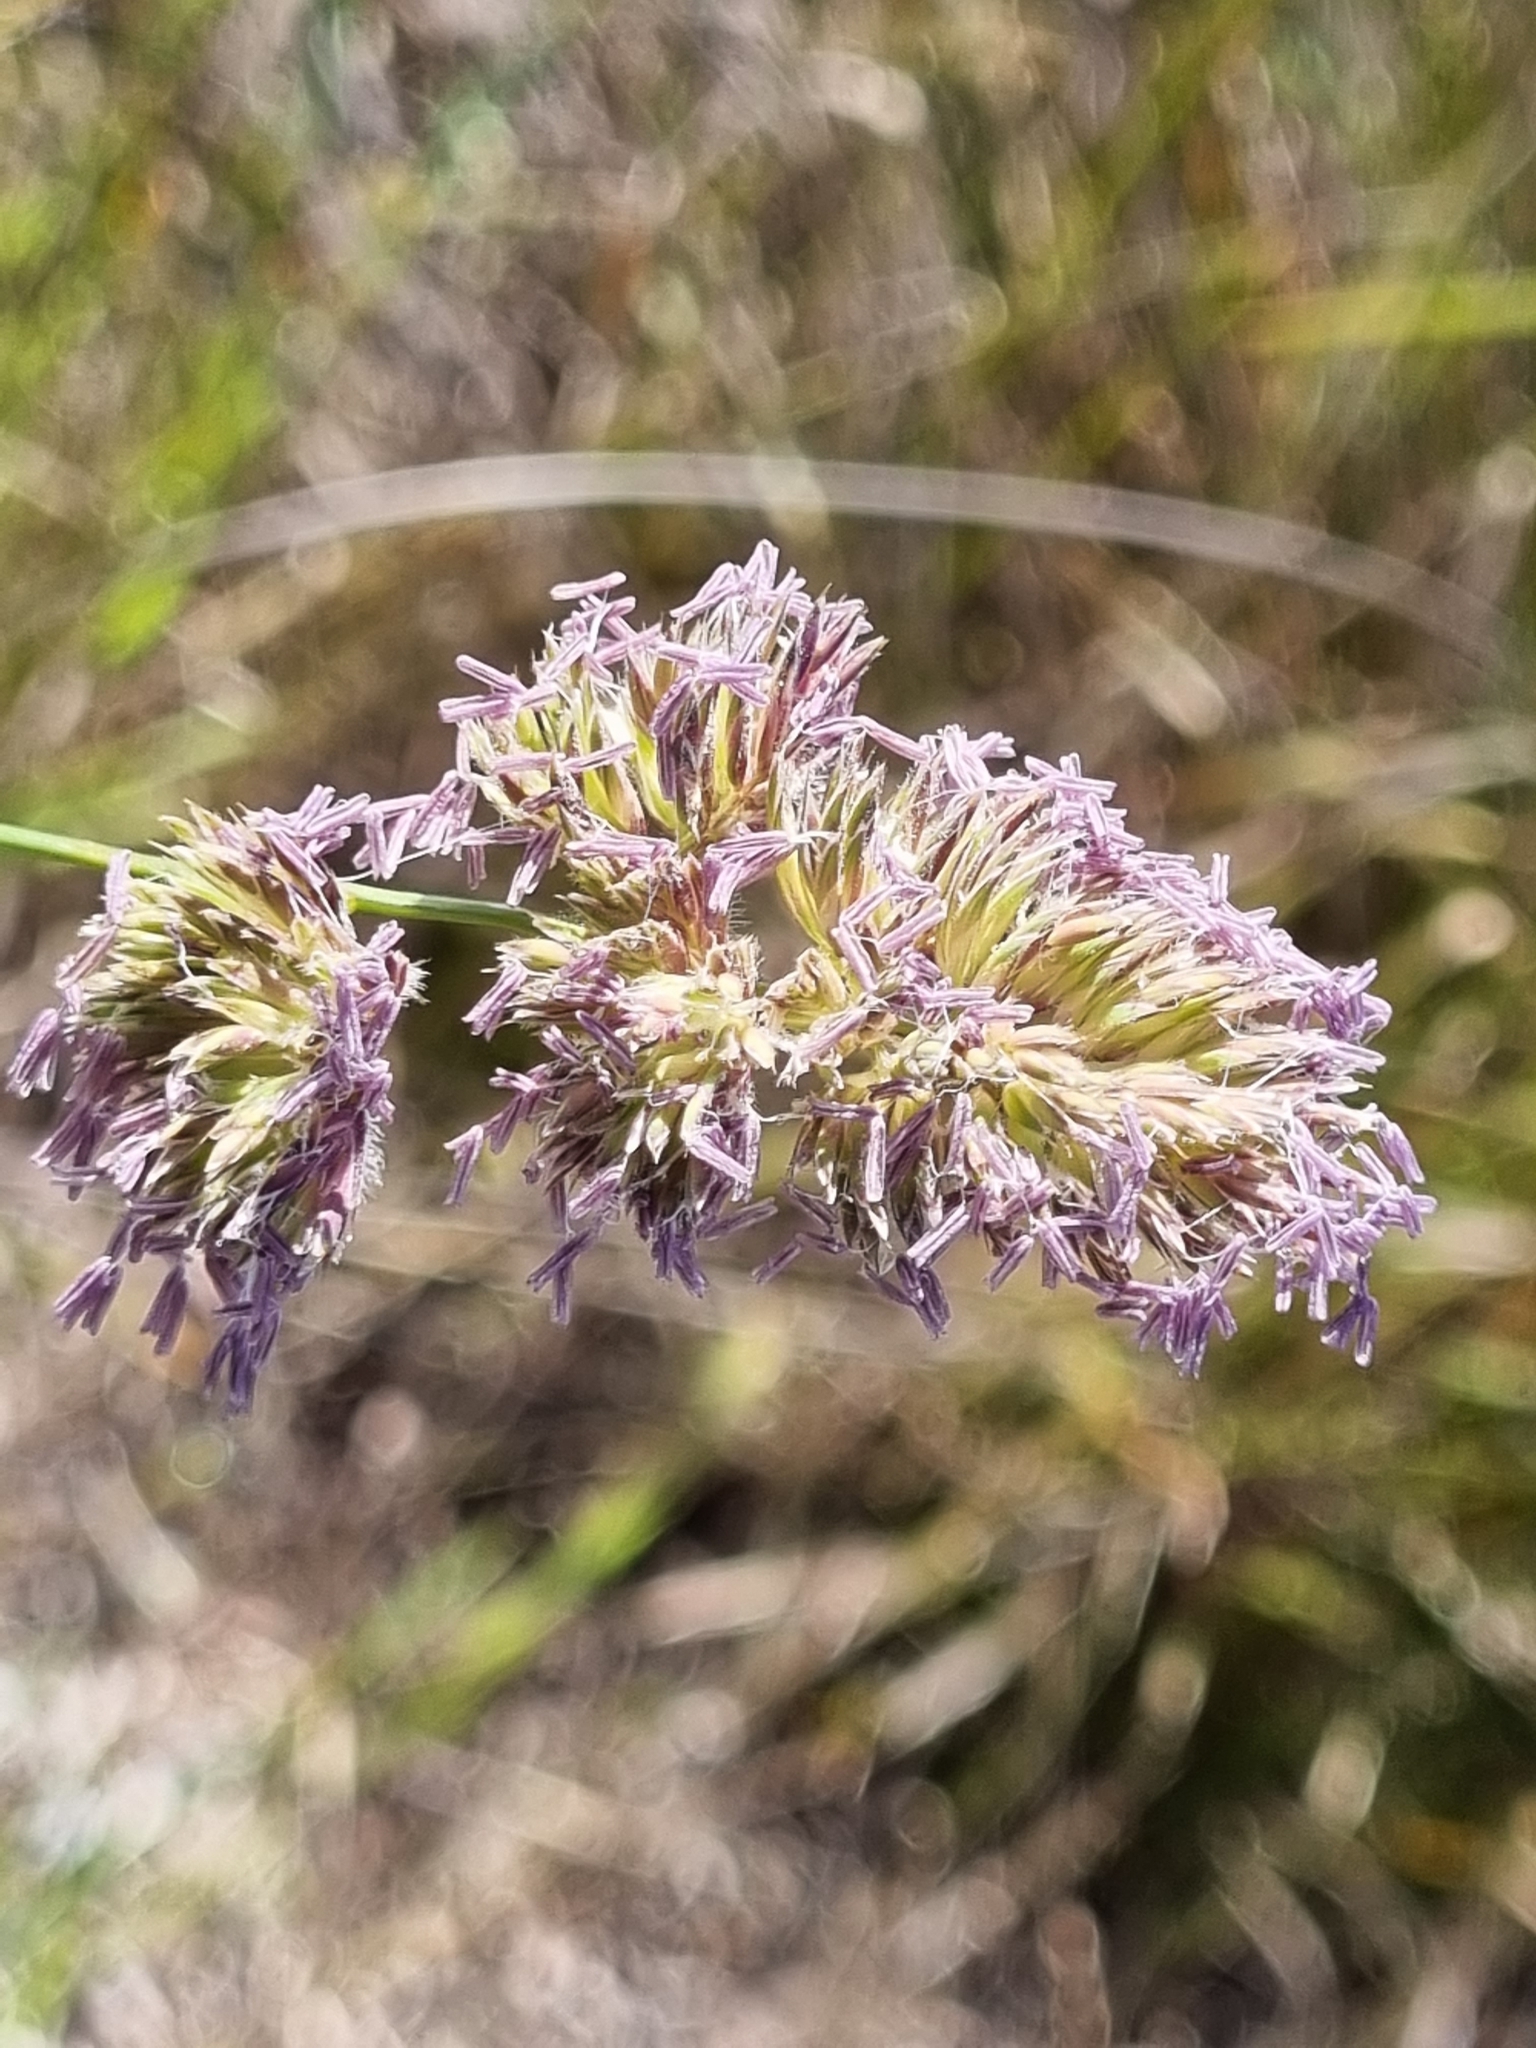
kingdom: Plantae
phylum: Tracheophyta
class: Liliopsida
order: Poales
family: Poaceae
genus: Dactylis
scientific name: Dactylis glomerata
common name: Orchardgrass
